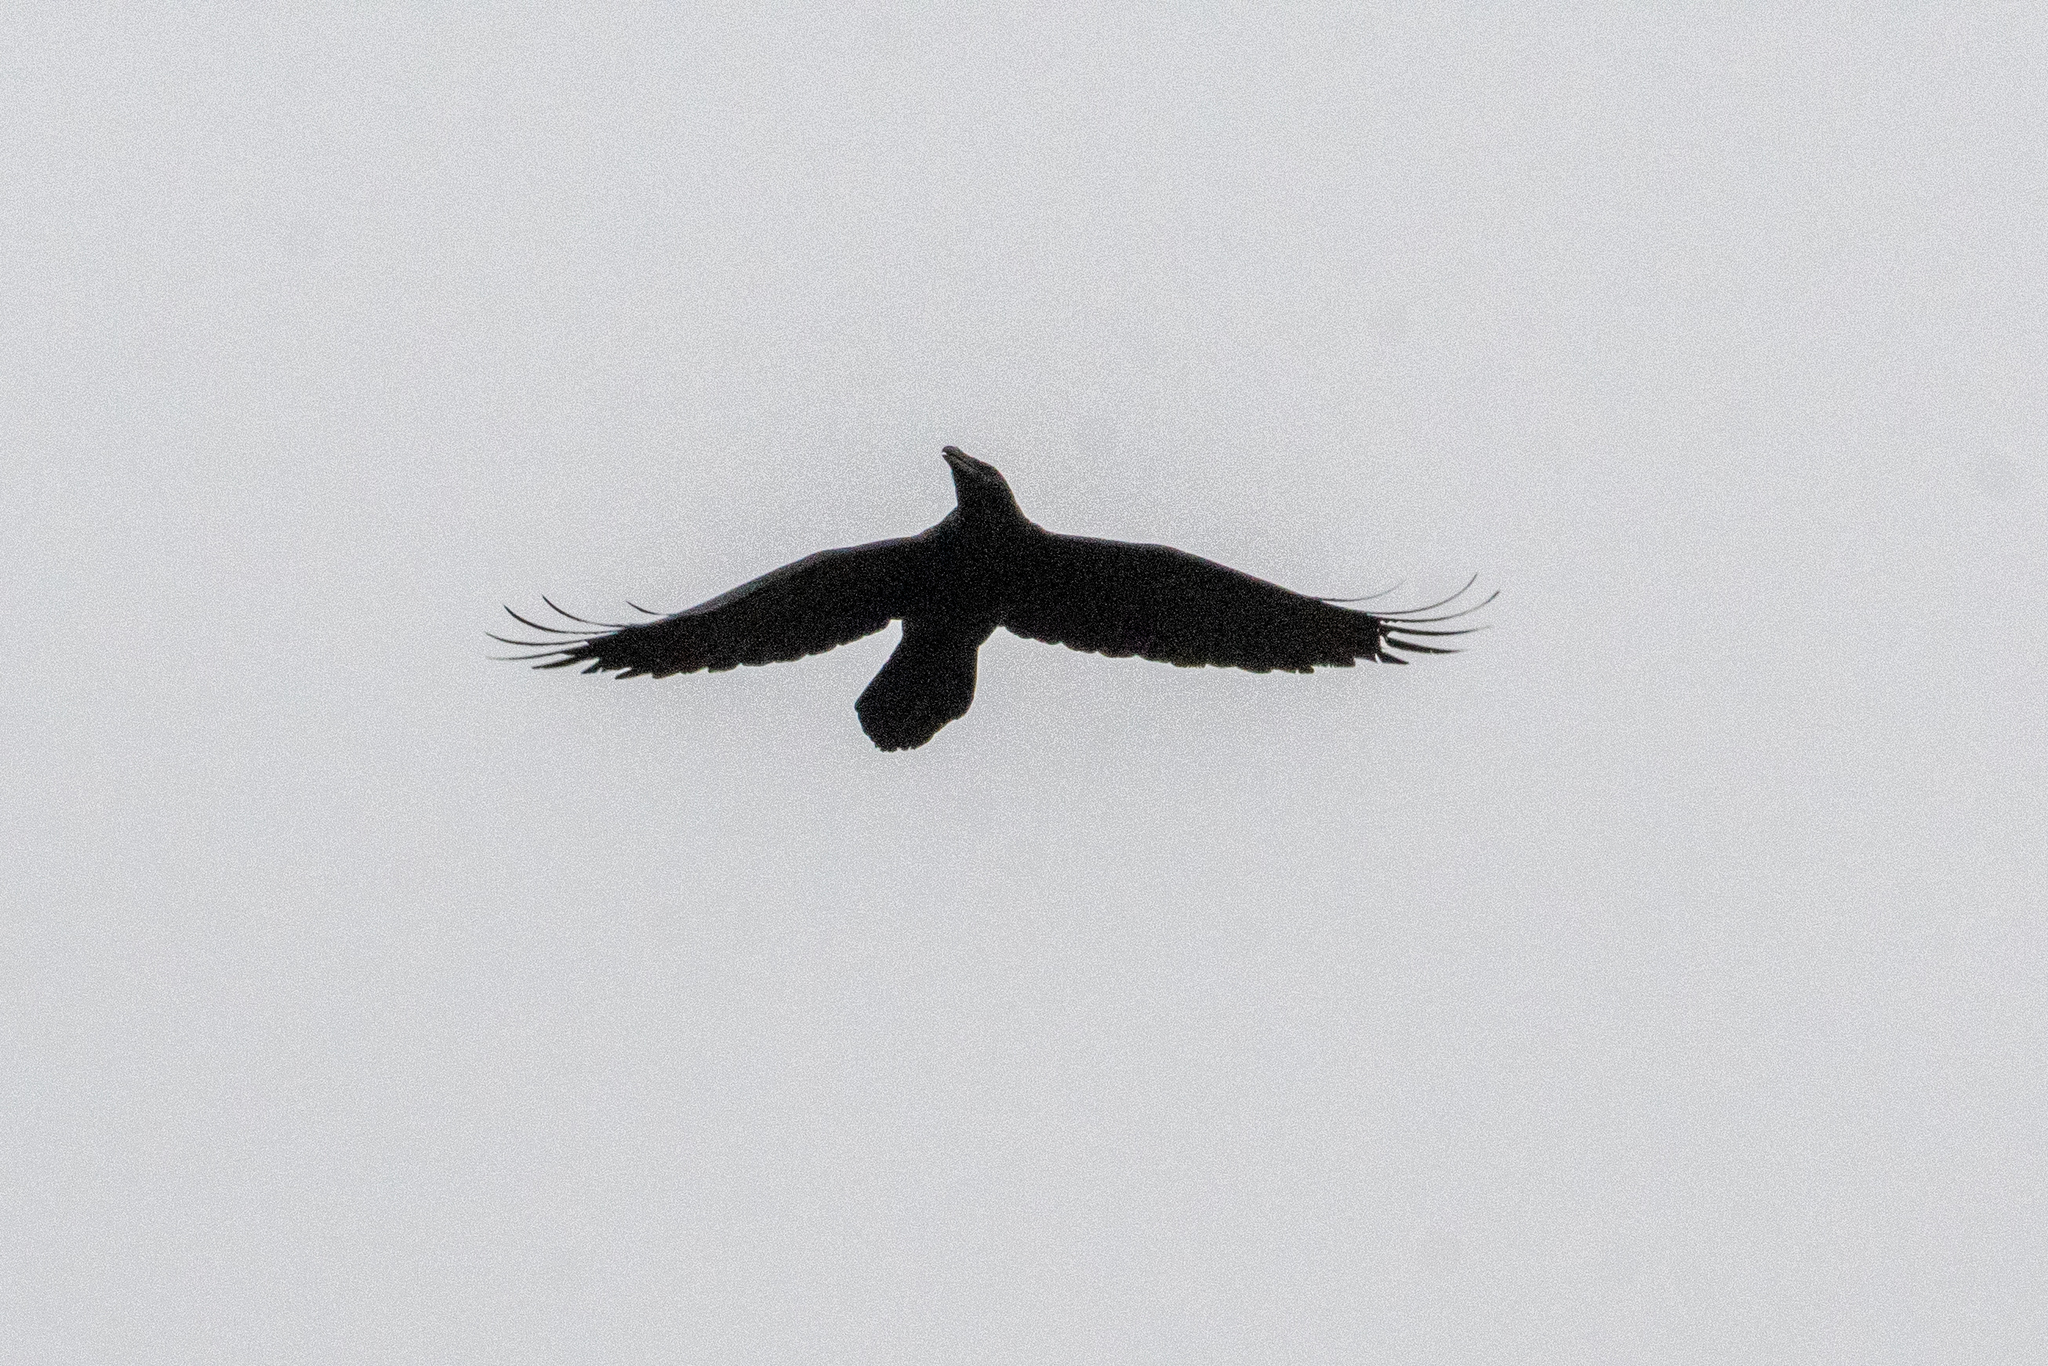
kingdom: Animalia
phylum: Chordata
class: Aves
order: Passeriformes
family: Corvidae
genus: Corvus
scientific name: Corvus corax
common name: Common raven
